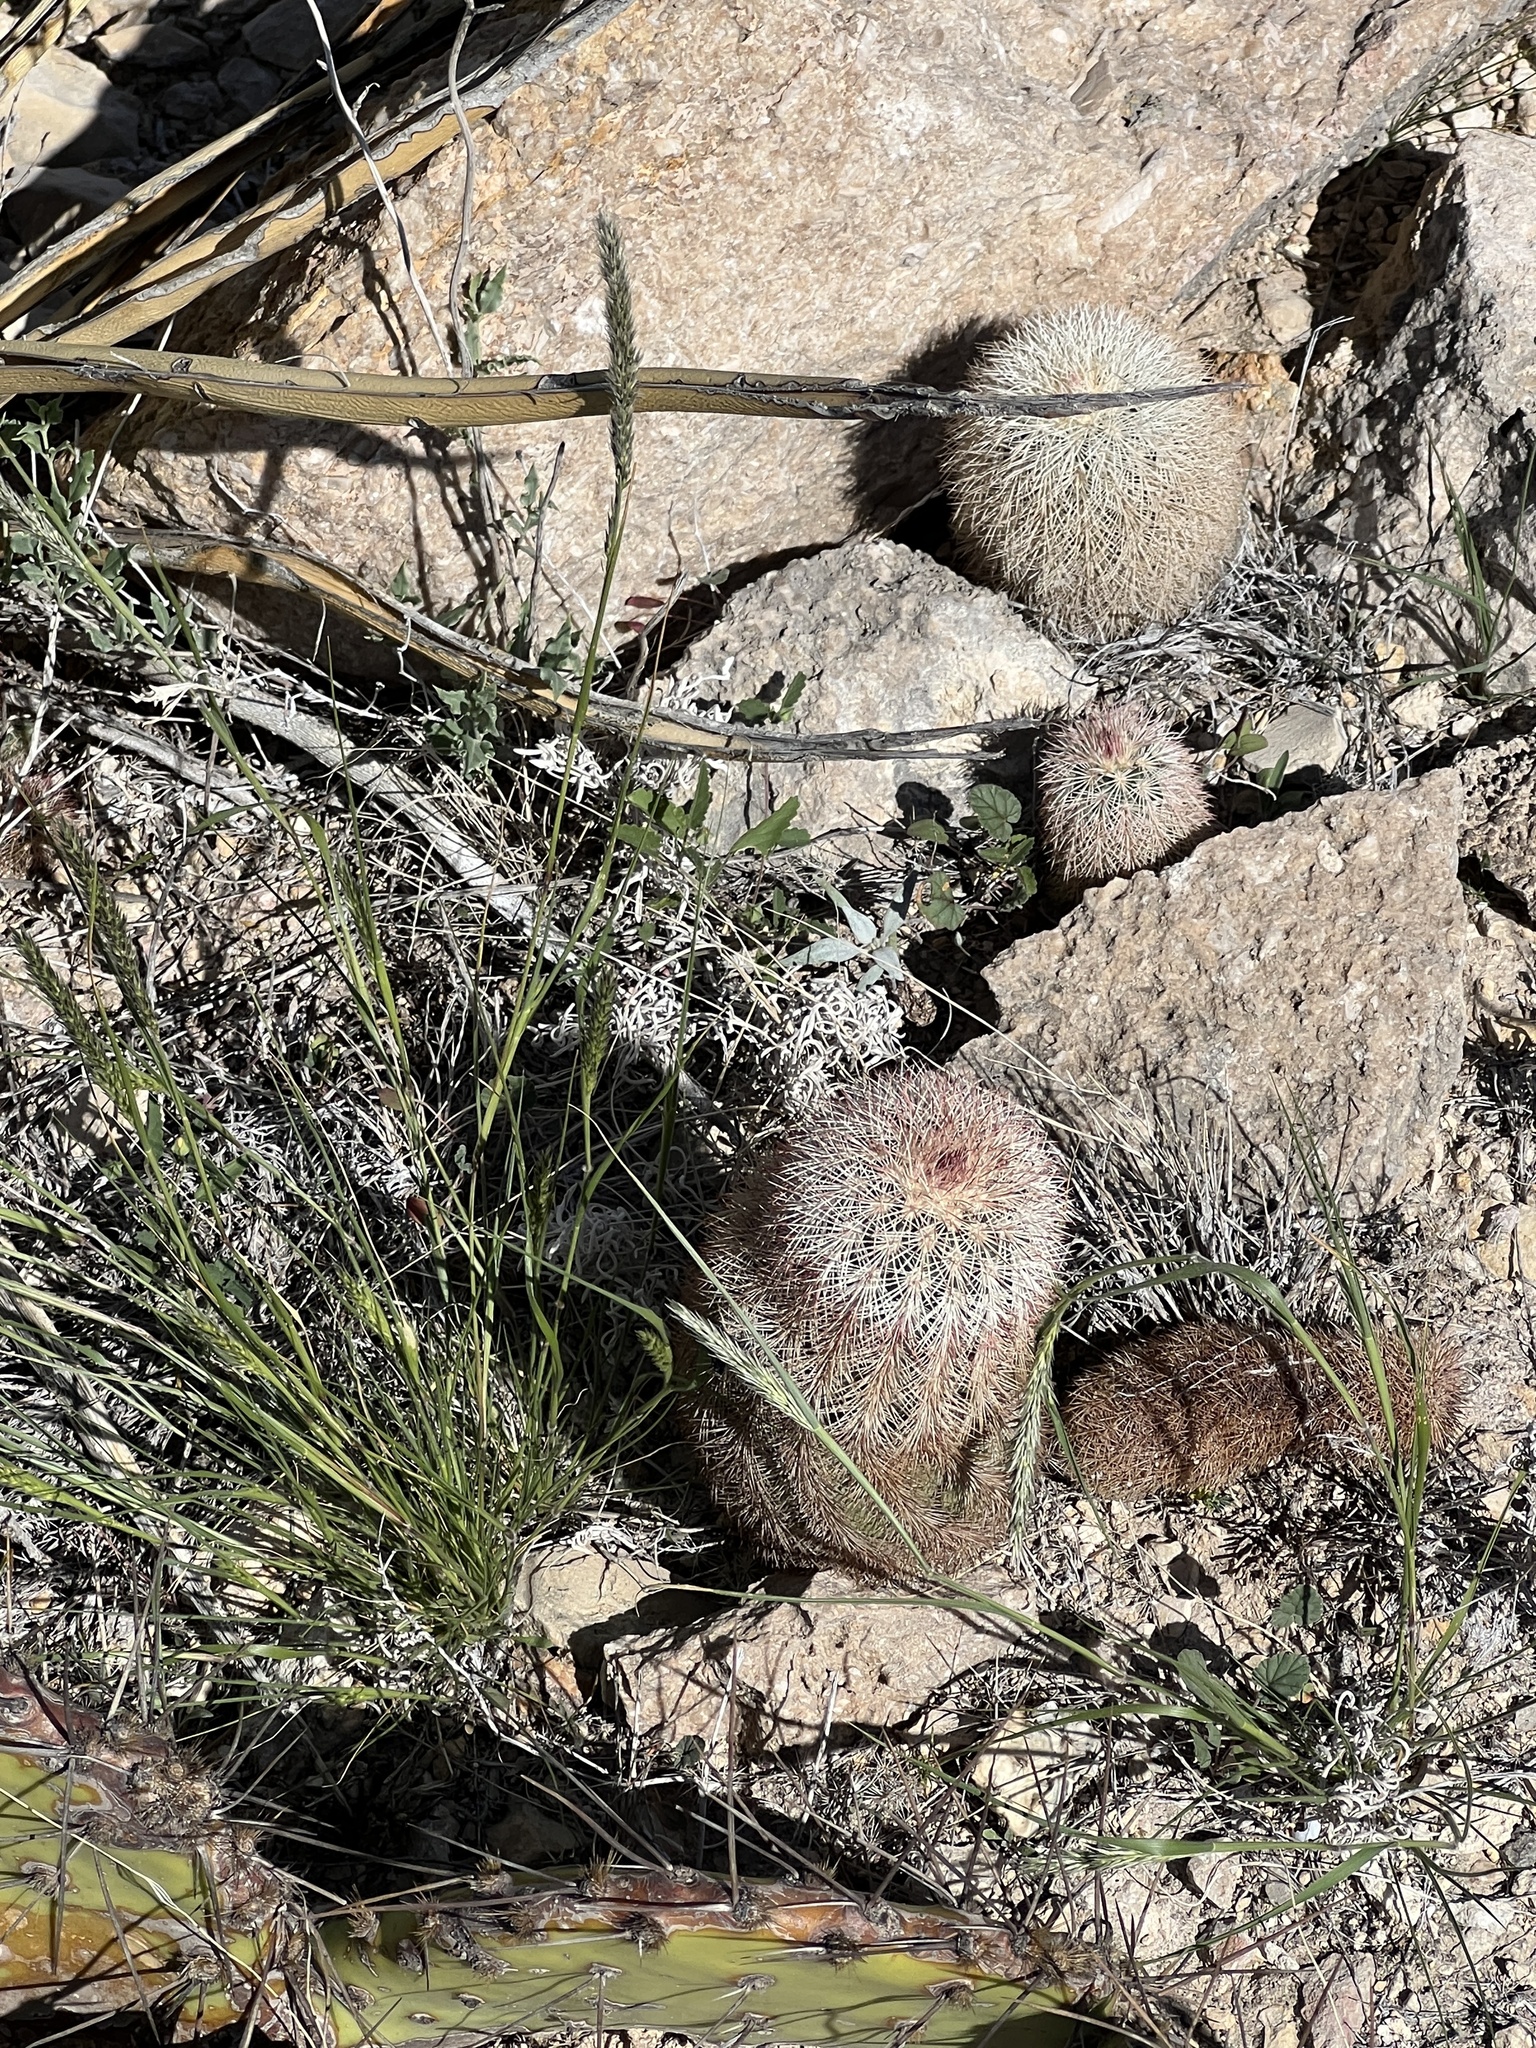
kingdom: Plantae
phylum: Tracheophyta
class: Magnoliopsida
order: Caryophyllales
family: Cactaceae
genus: Echinocereus
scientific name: Echinocereus dasyacanthus
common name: Spiny hedgehog cactus
